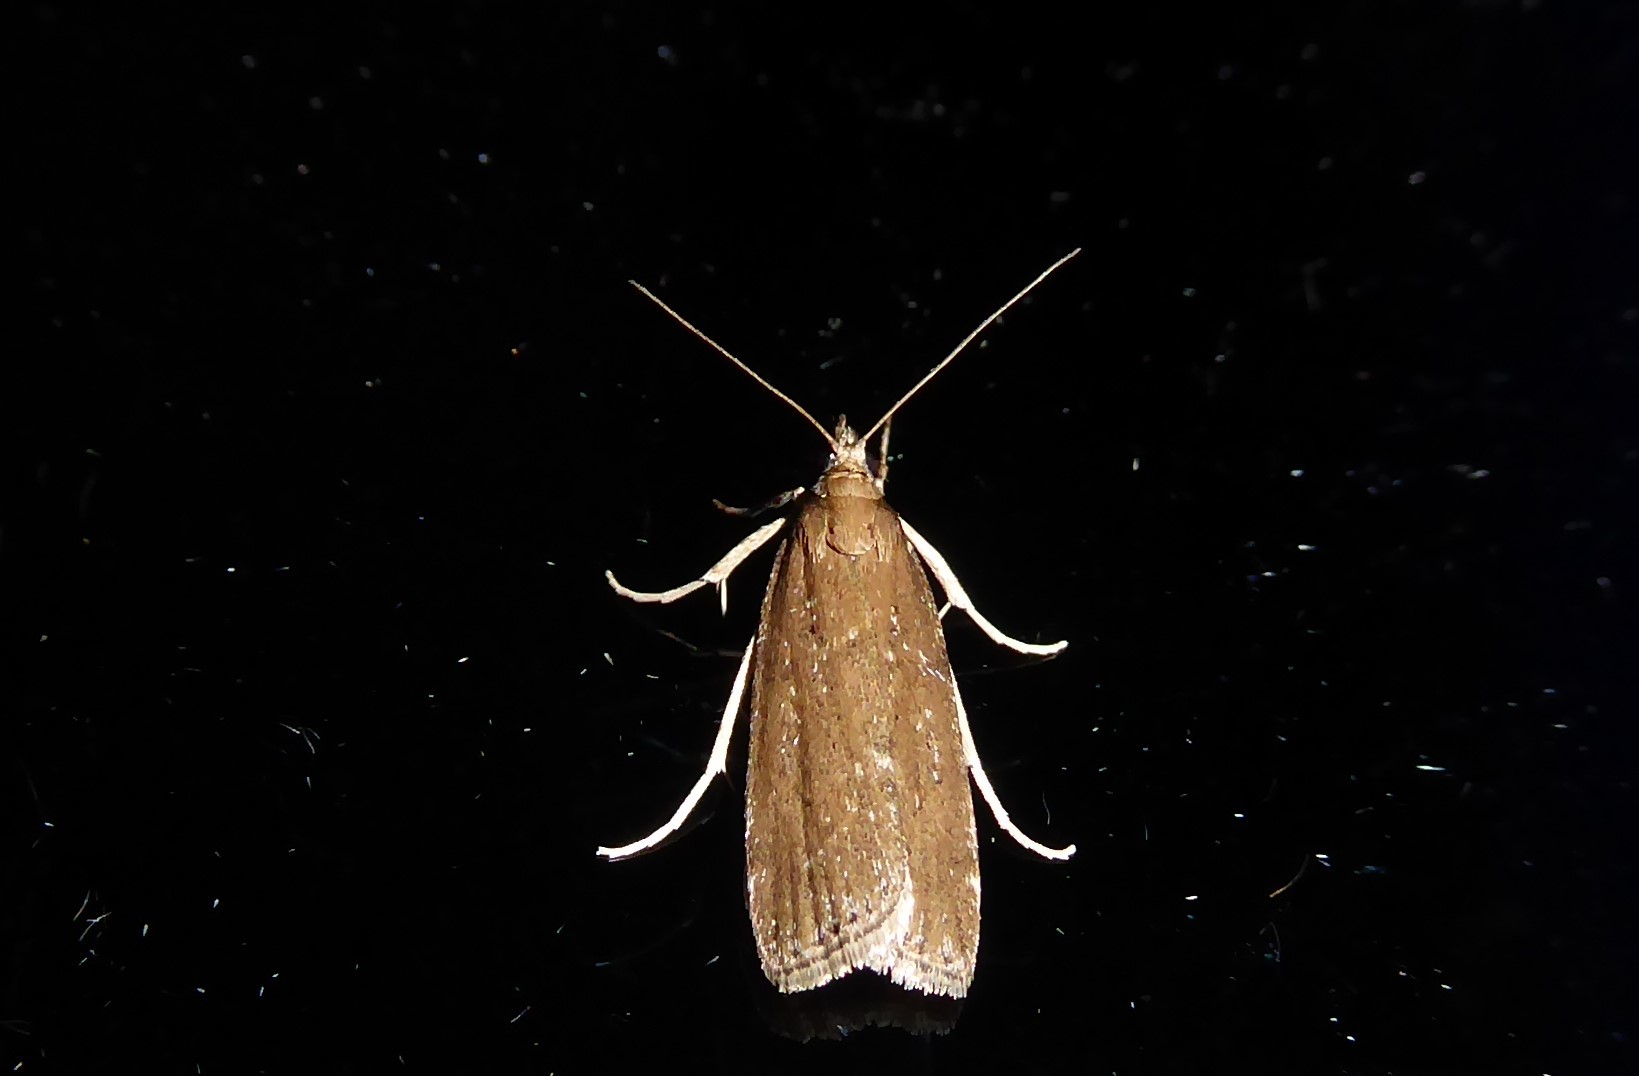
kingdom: Animalia
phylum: Arthropoda
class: Insecta
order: Lepidoptera
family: Crambidae
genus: Eudonia
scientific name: Eudonia octophora
